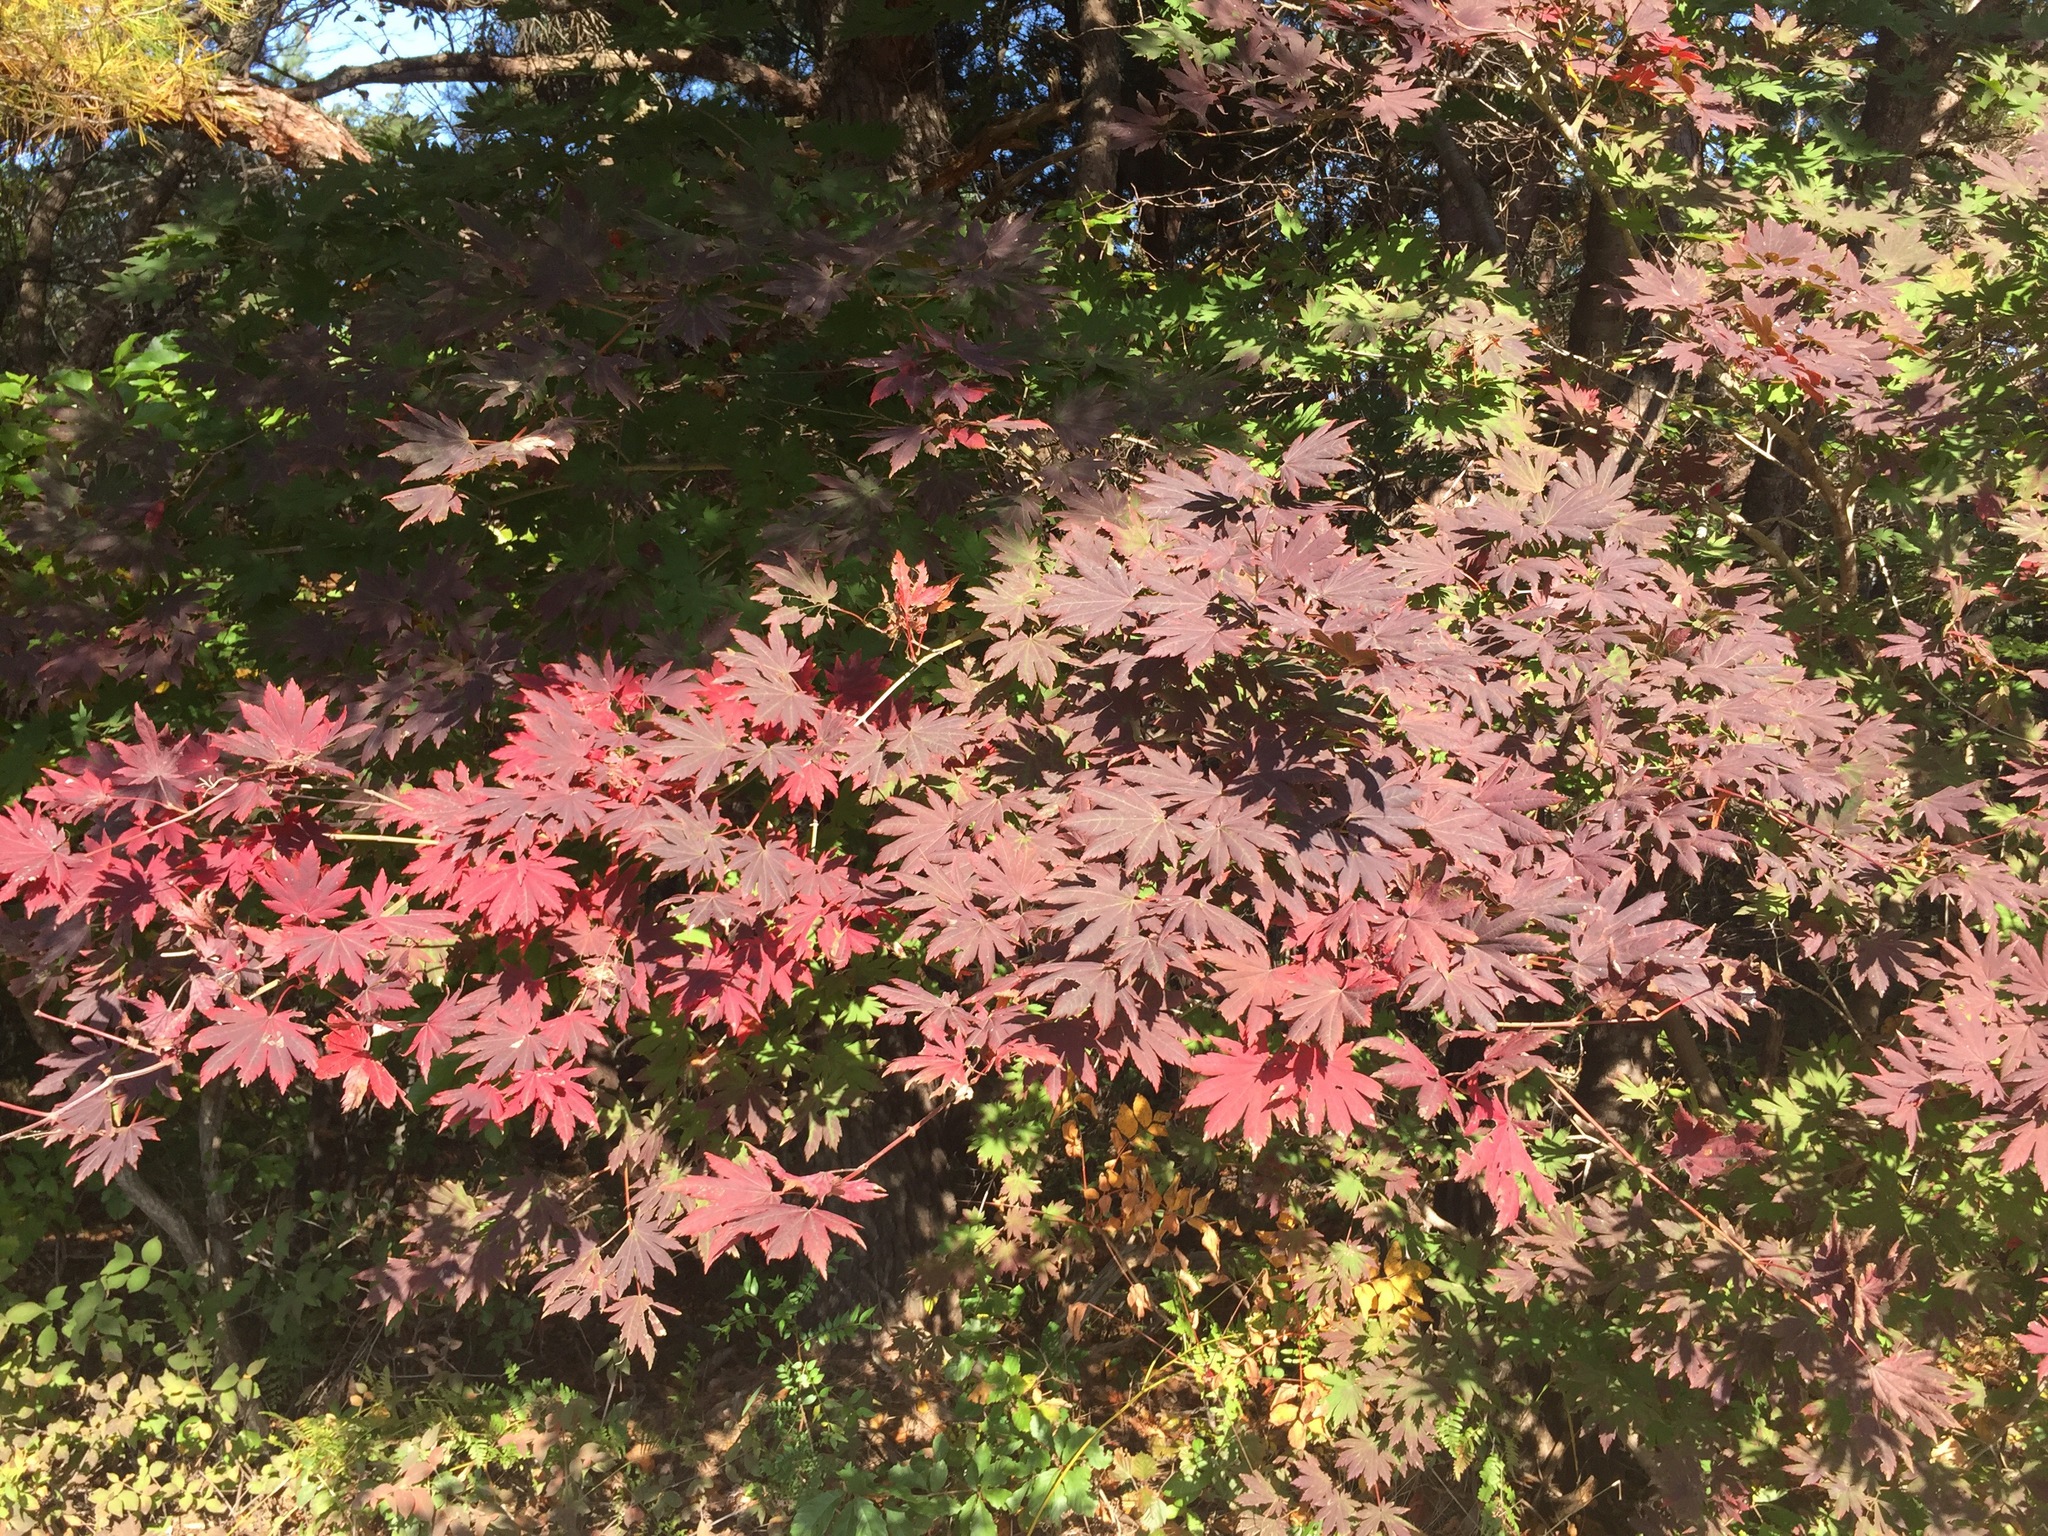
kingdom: Plantae
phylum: Tracheophyta
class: Magnoliopsida
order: Sapindales
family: Sapindaceae
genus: Acer
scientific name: Acer palmatum
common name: Japanese maple
